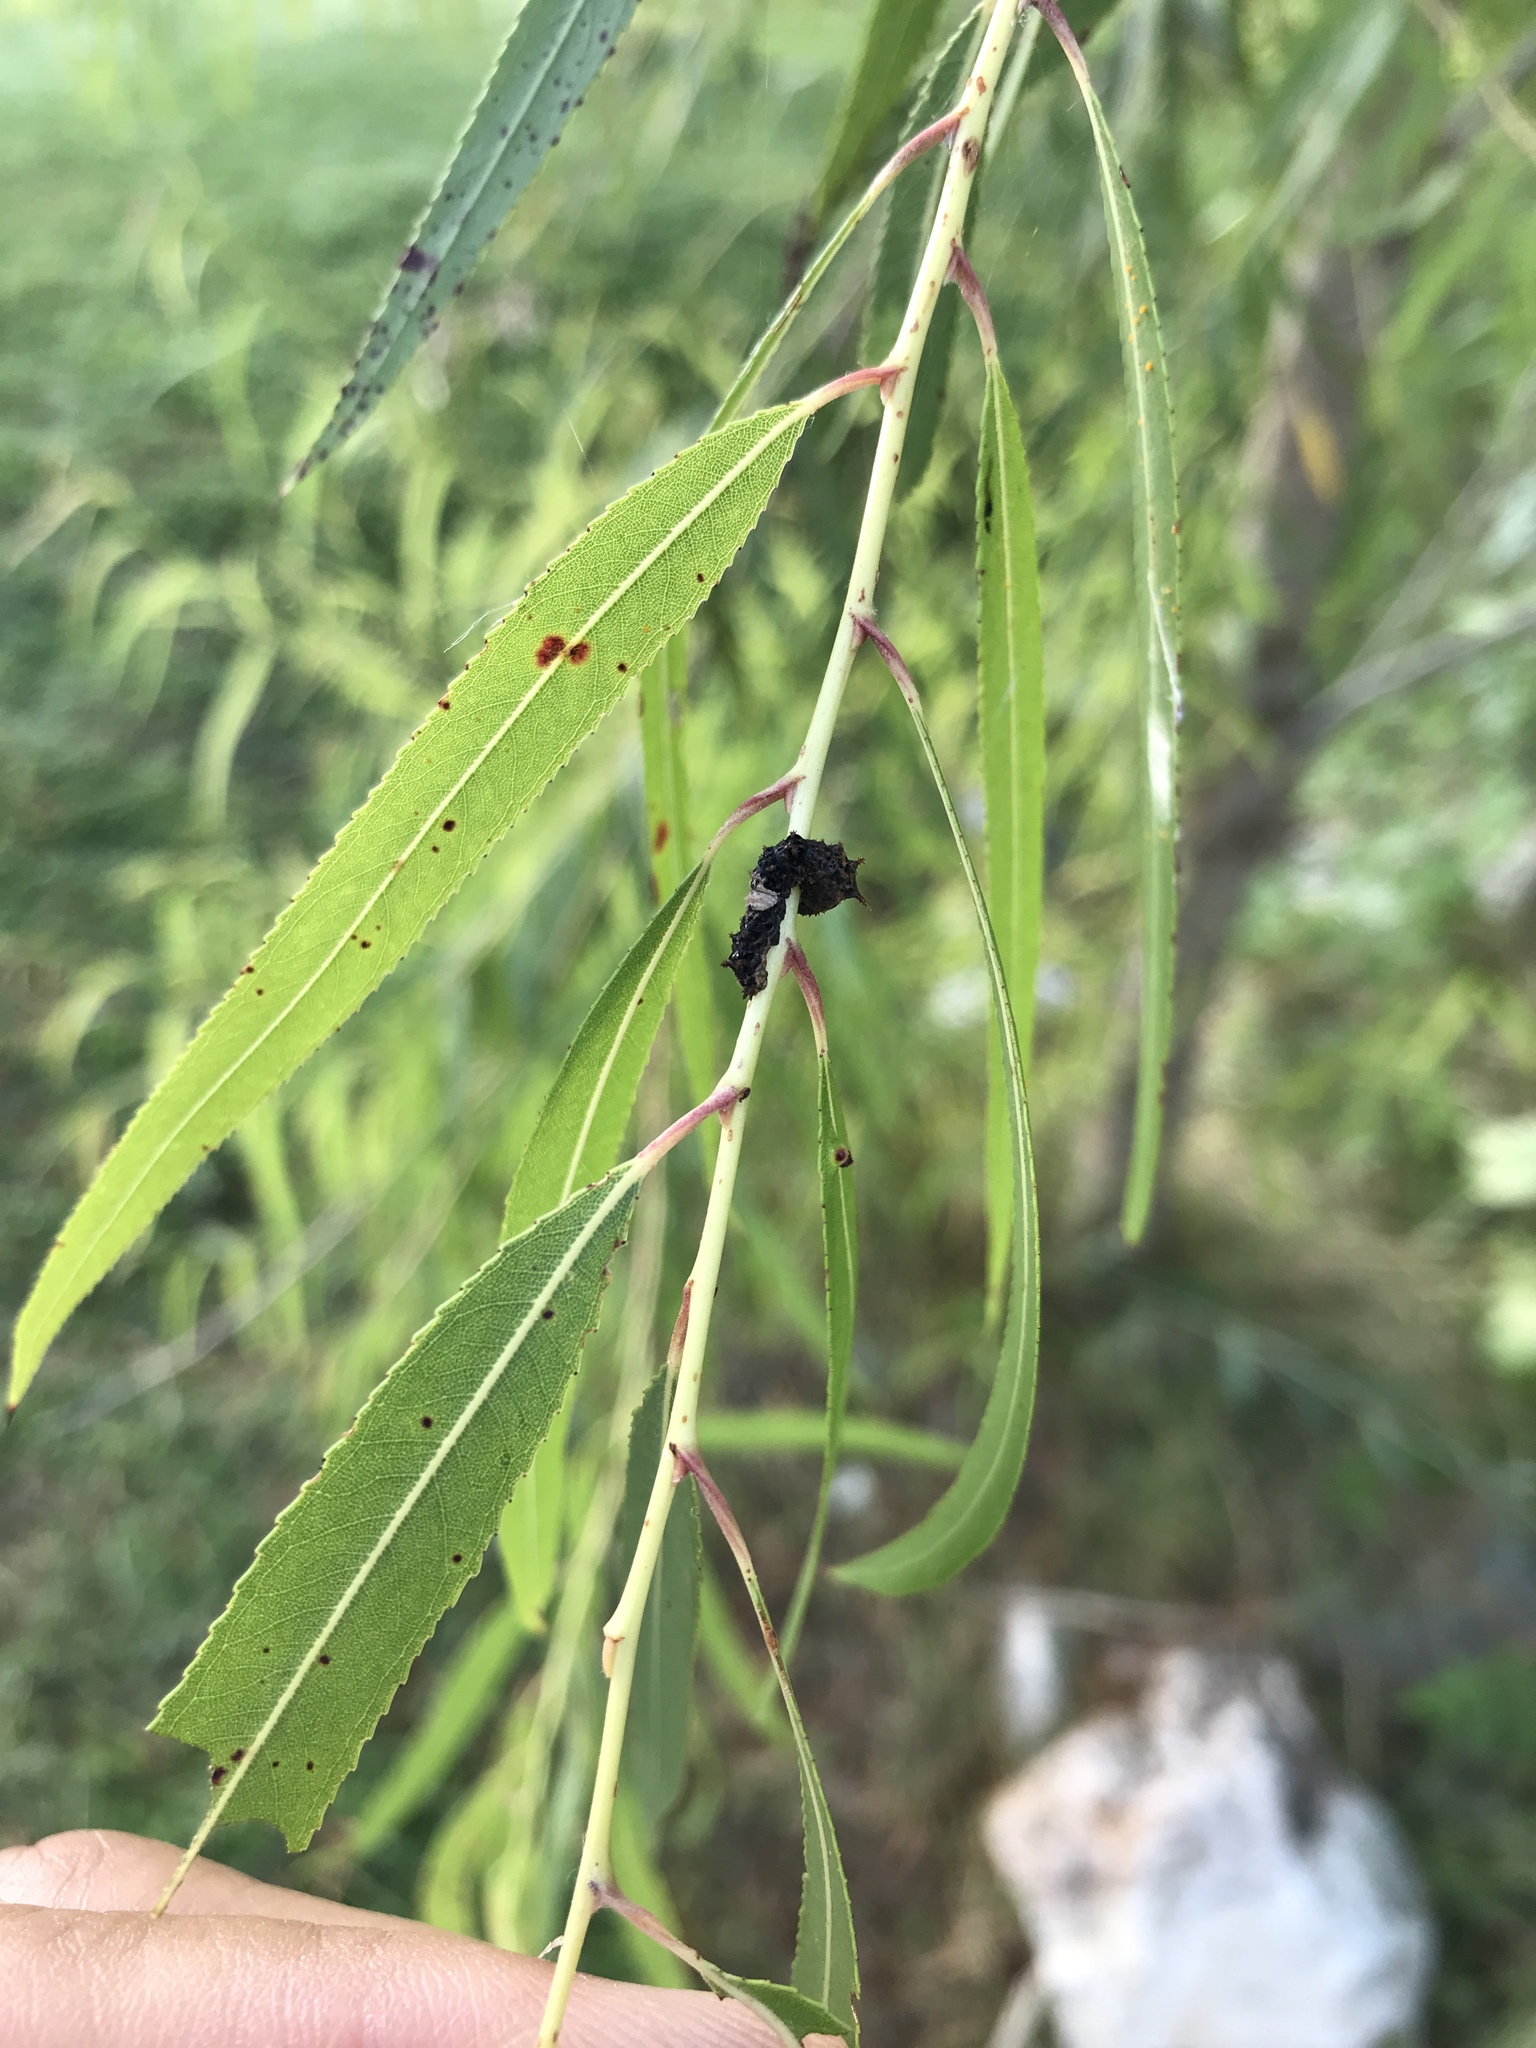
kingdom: Animalia
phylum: Arthropoda
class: Insecta
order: Lepidoptera
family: Nymphalidae
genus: Limenitis
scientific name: Limenitis archippus
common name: Viceroy
